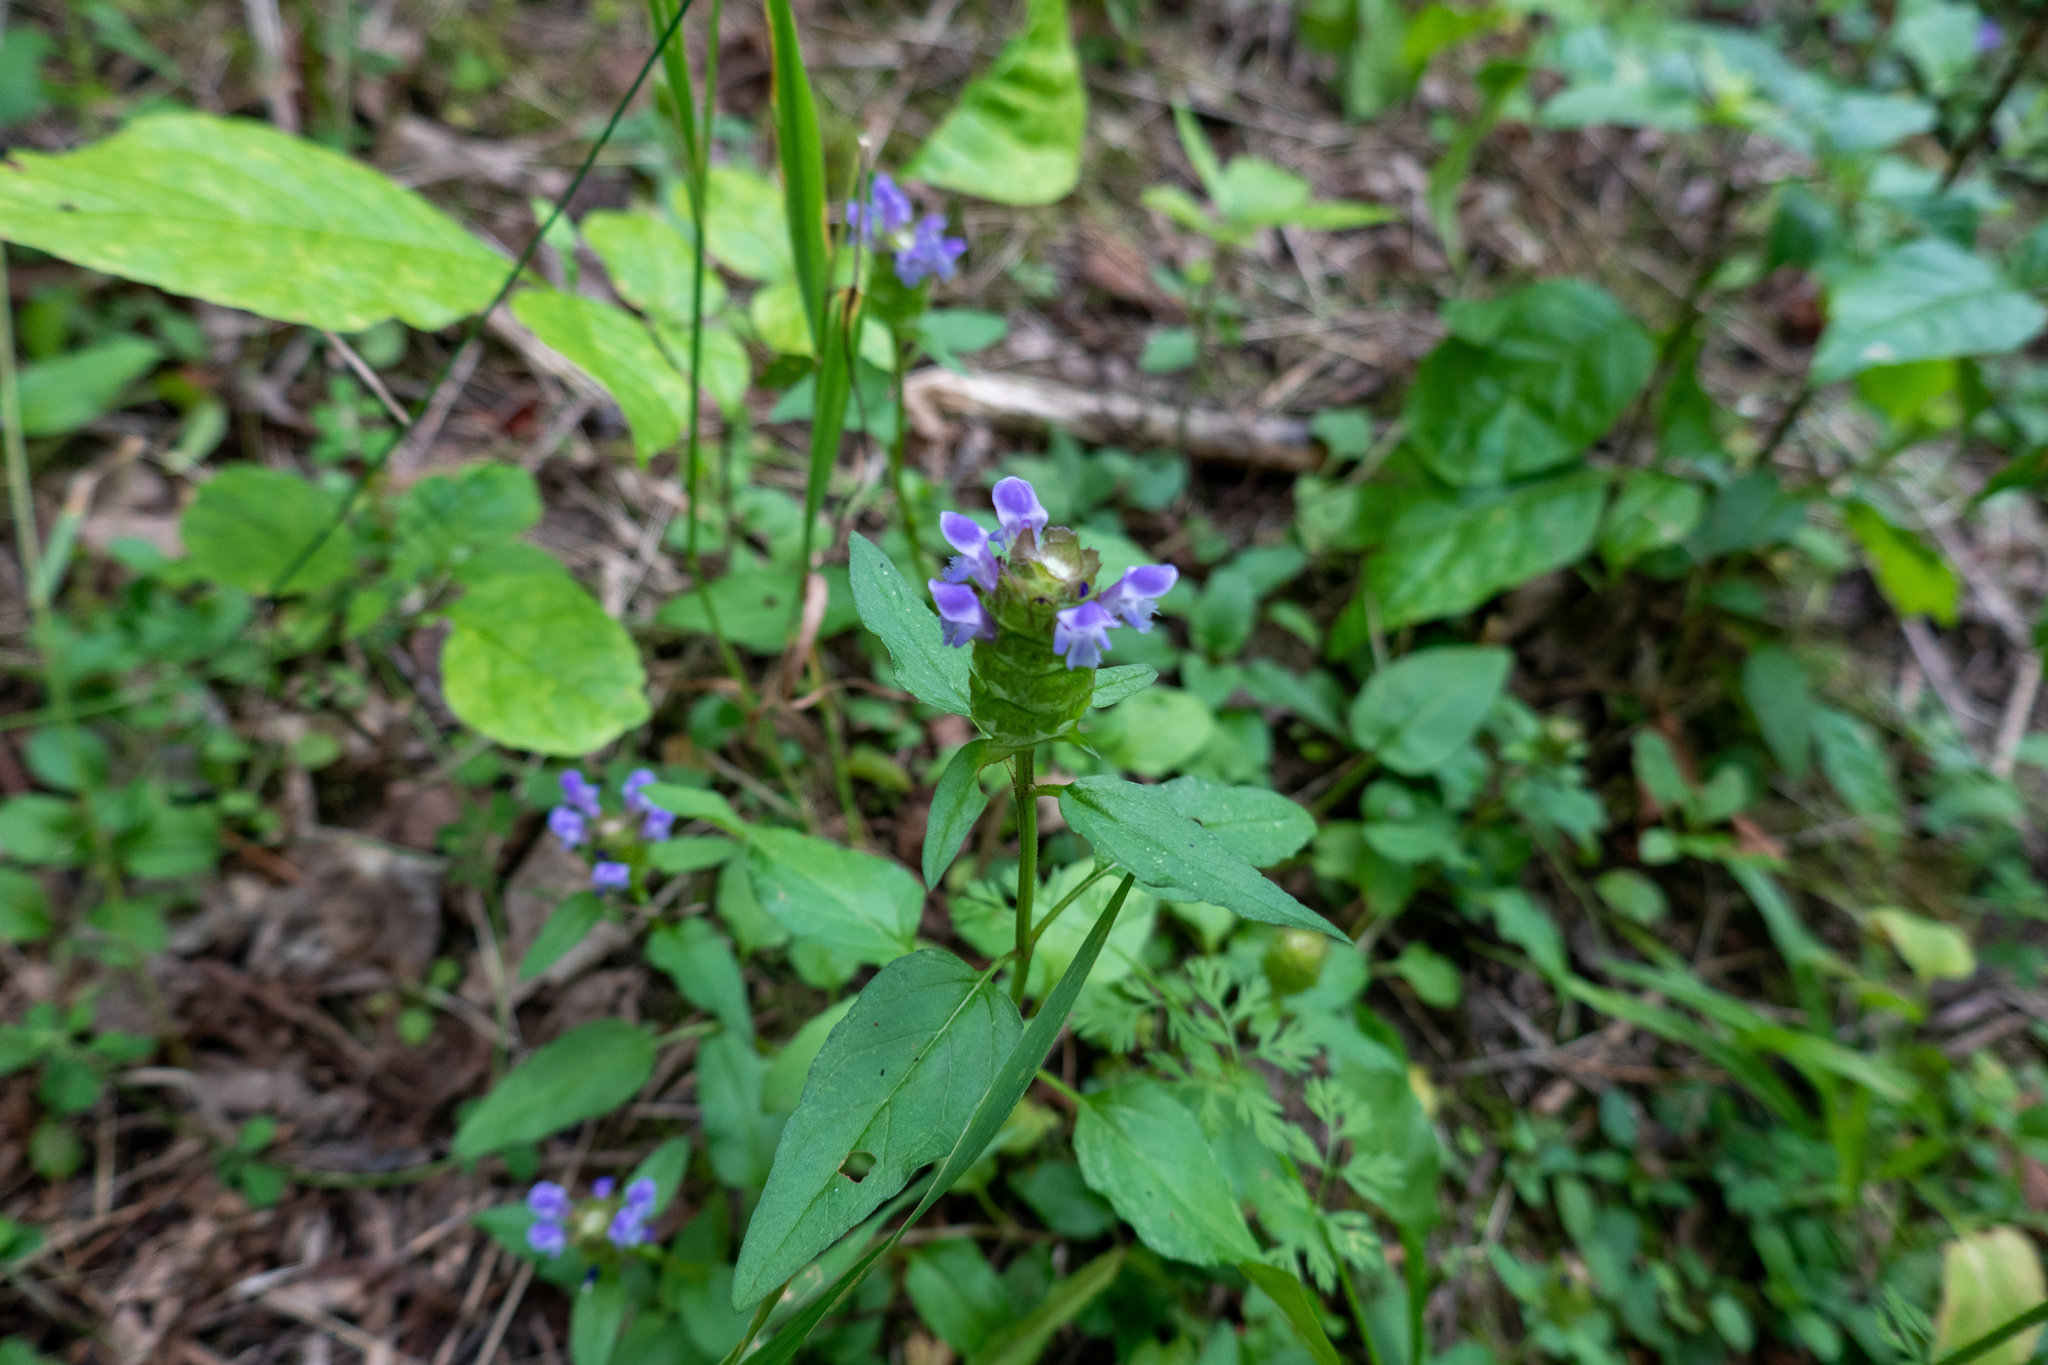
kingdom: Plantae
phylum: Tracheophyta
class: Magnoliopsida
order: Lamiales
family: Lamiaceae
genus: Prunella
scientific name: Prunella vulgaris
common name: Heal-all
